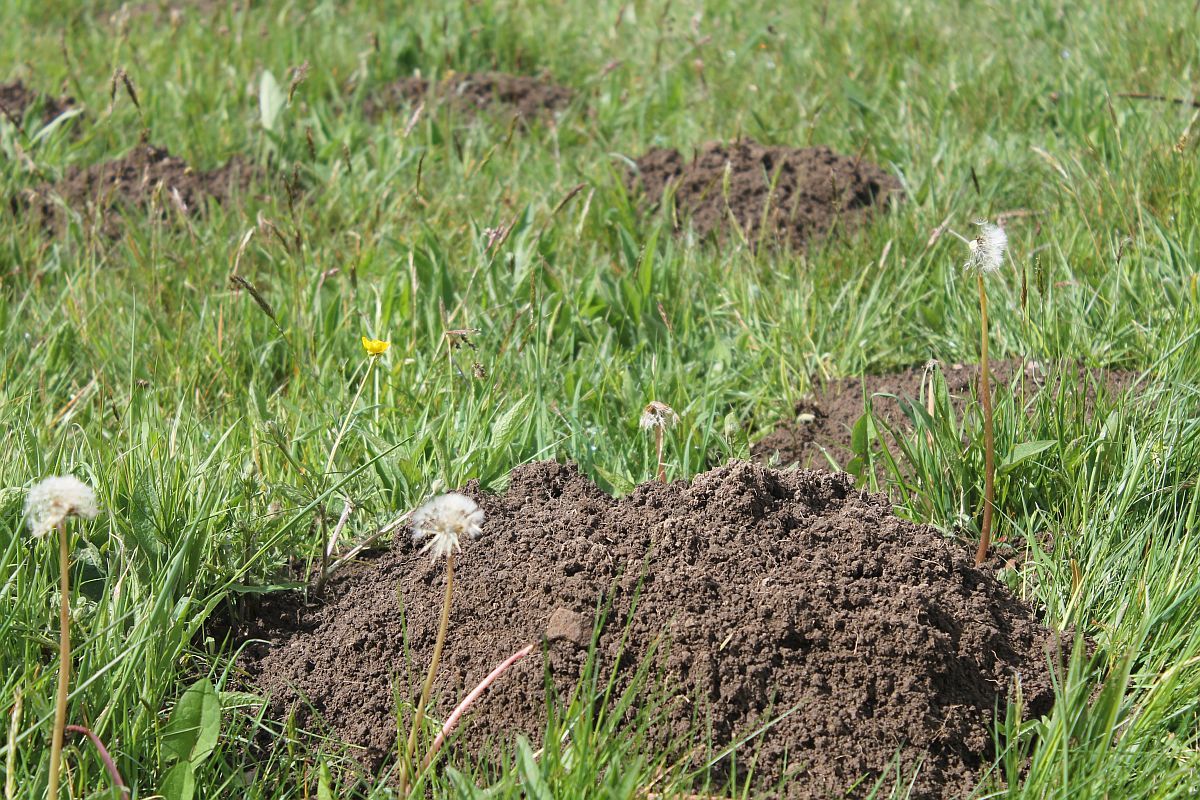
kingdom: Animalia
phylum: Chordata
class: Mammalia
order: Soricomorpha
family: Talpidae
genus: Talpa
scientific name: Talpa europaea
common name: European mole
